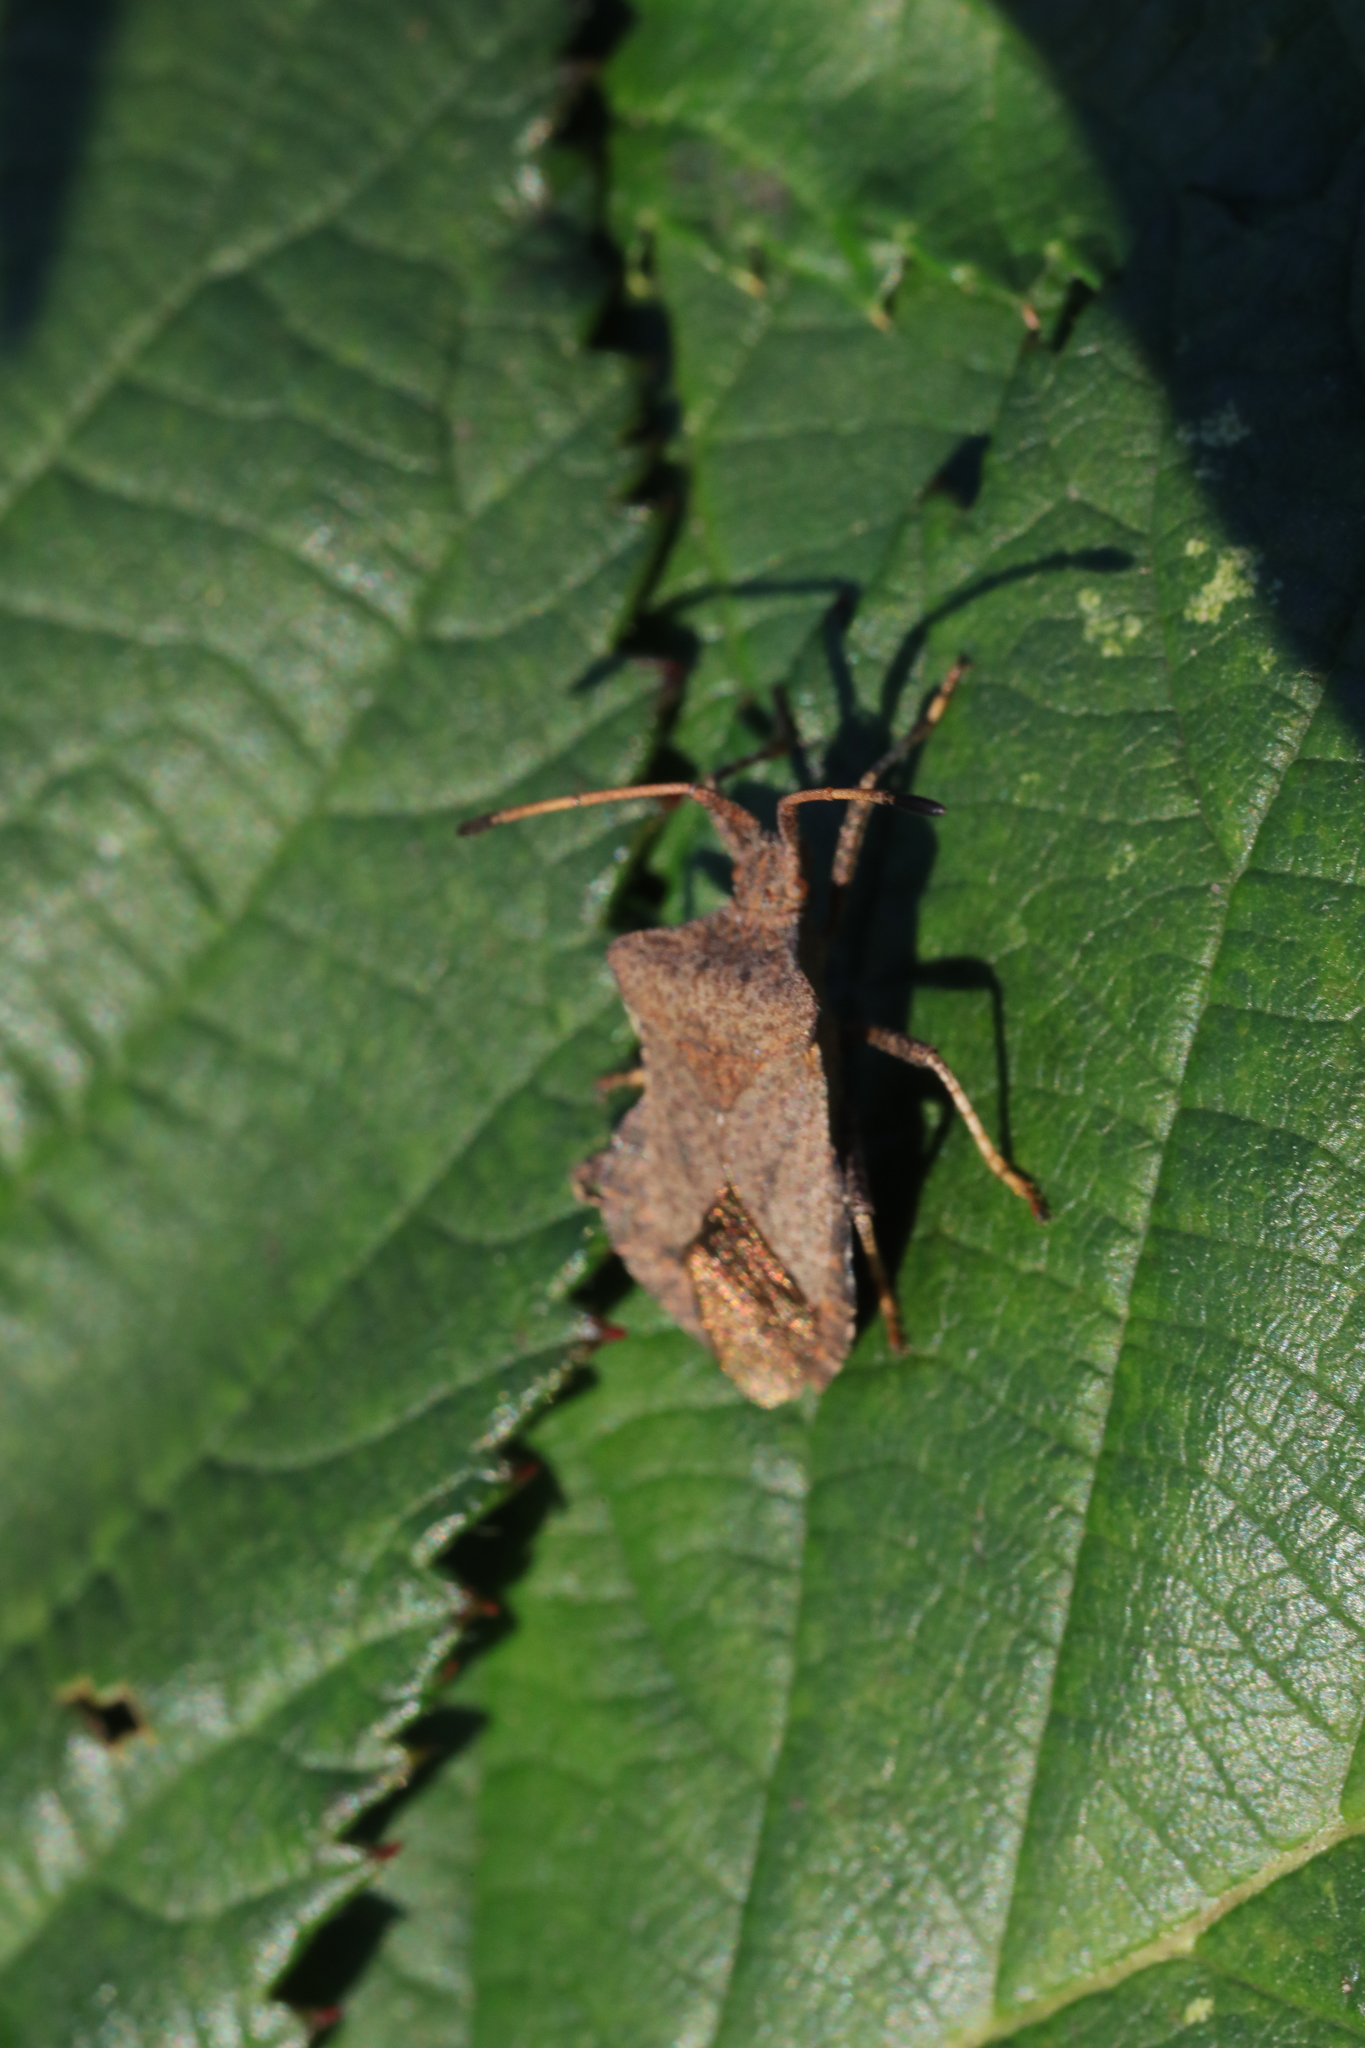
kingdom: Animalia
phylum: Arthropoda
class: Insecta
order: Hemiptera
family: Coreidae
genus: Coreus
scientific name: Coreus marginatus
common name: Dock bug
